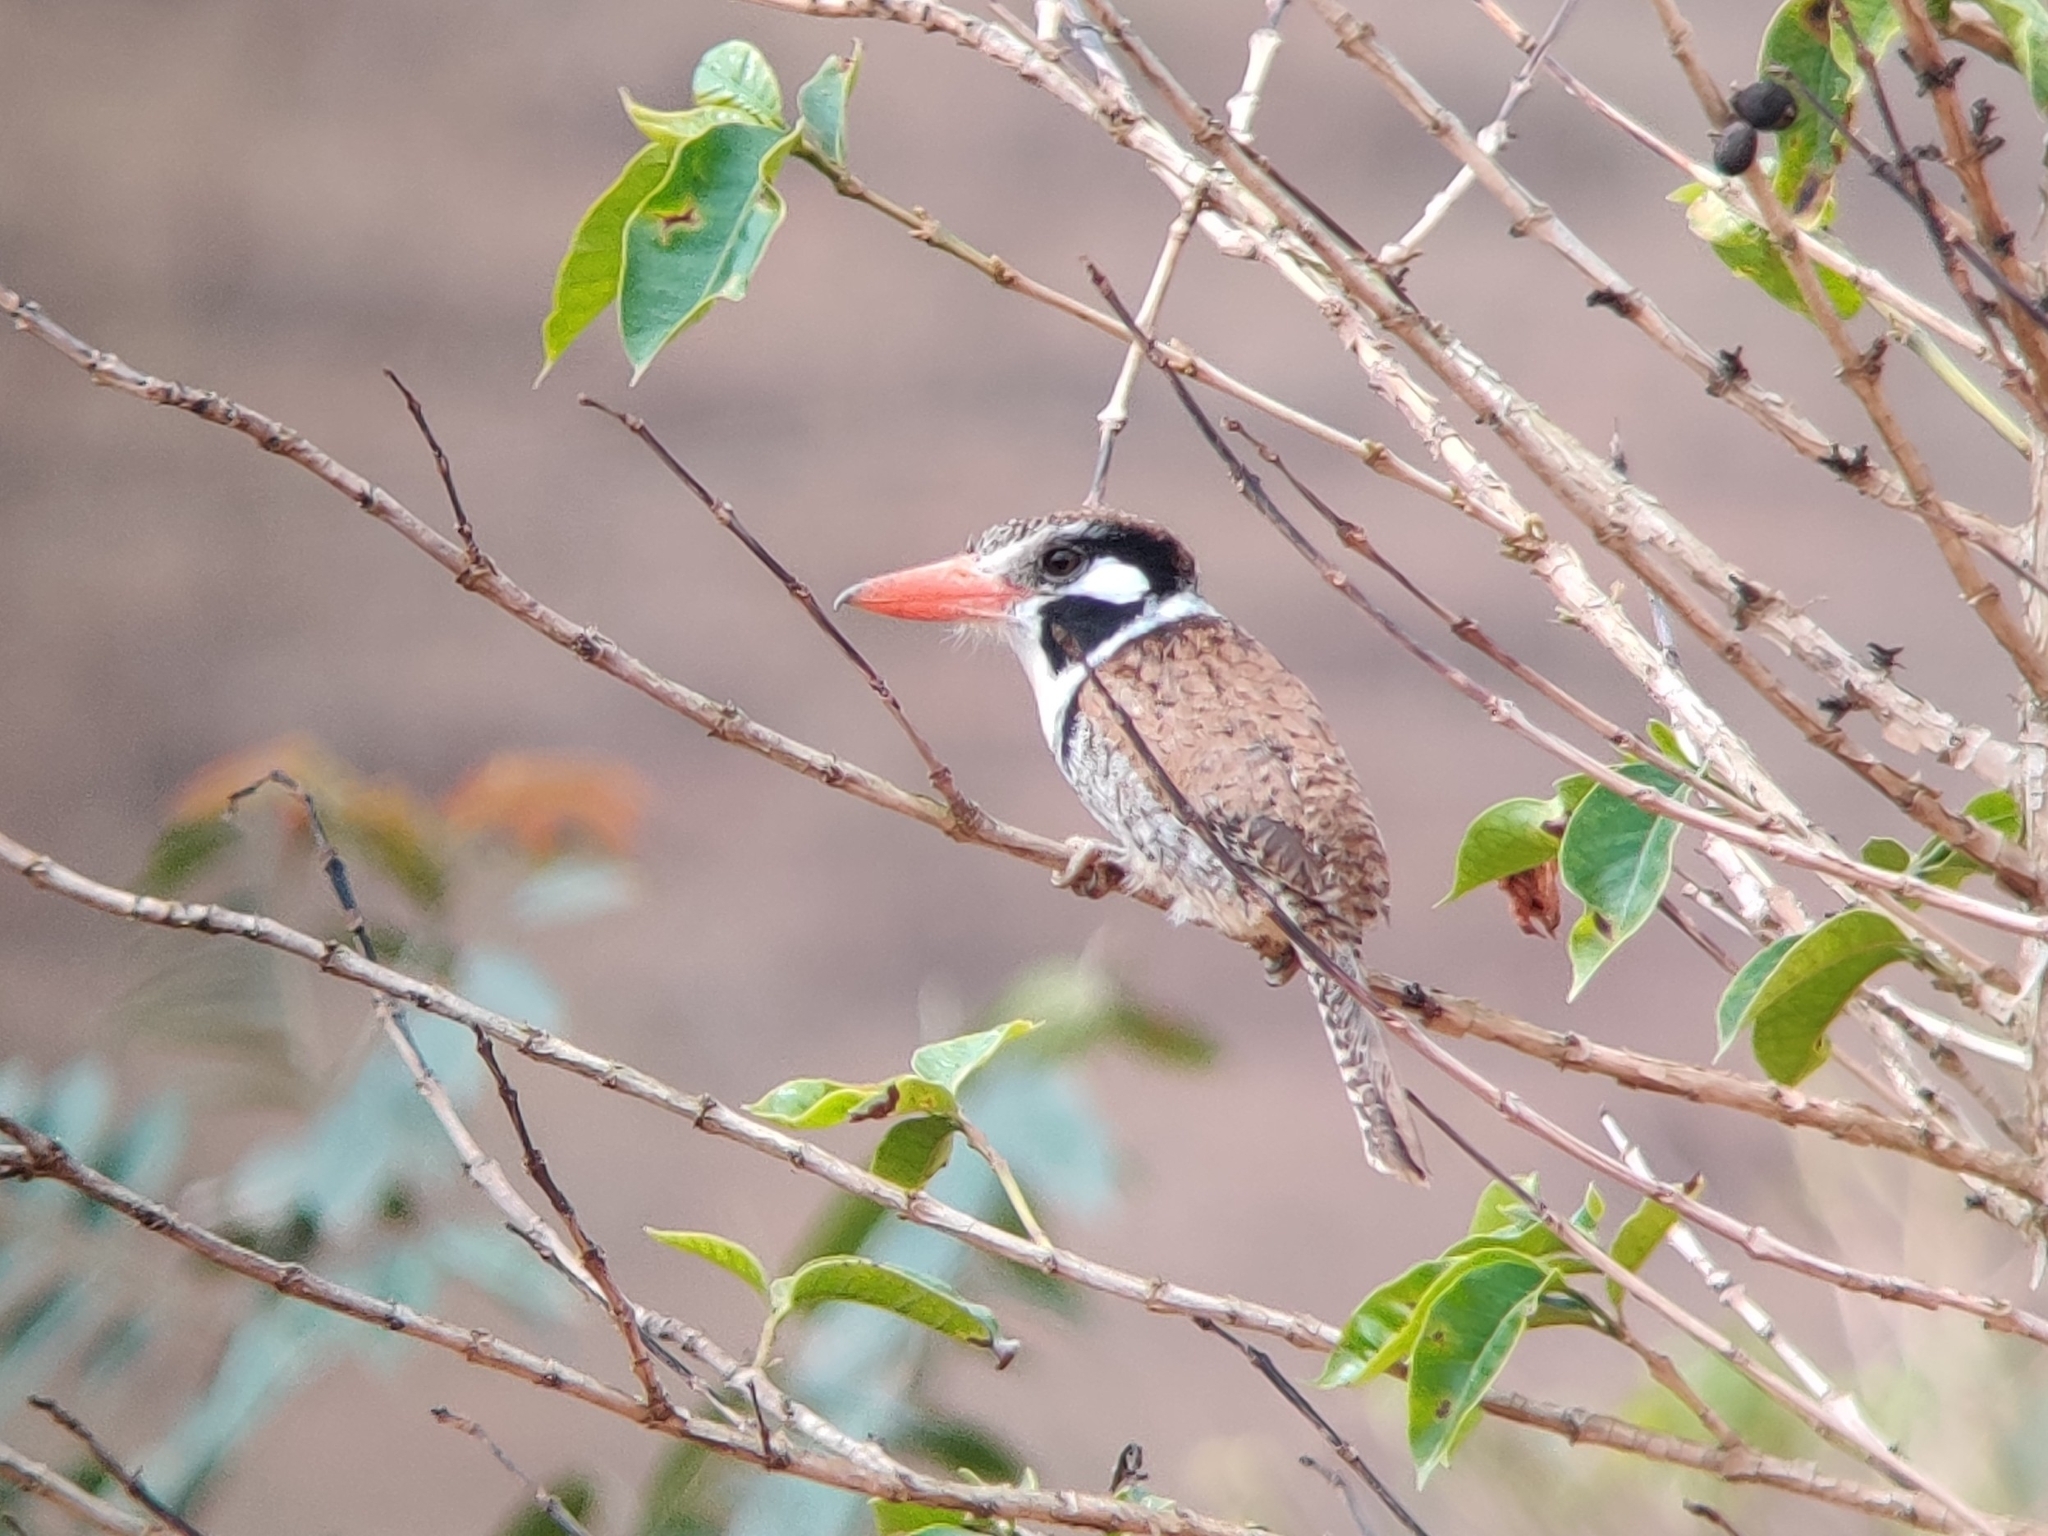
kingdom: Animalia
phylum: Chordata
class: Aves
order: Piciformes
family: Bucconidae
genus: Nystalus
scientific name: Nystalus chacuru
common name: White-eared puffbird
